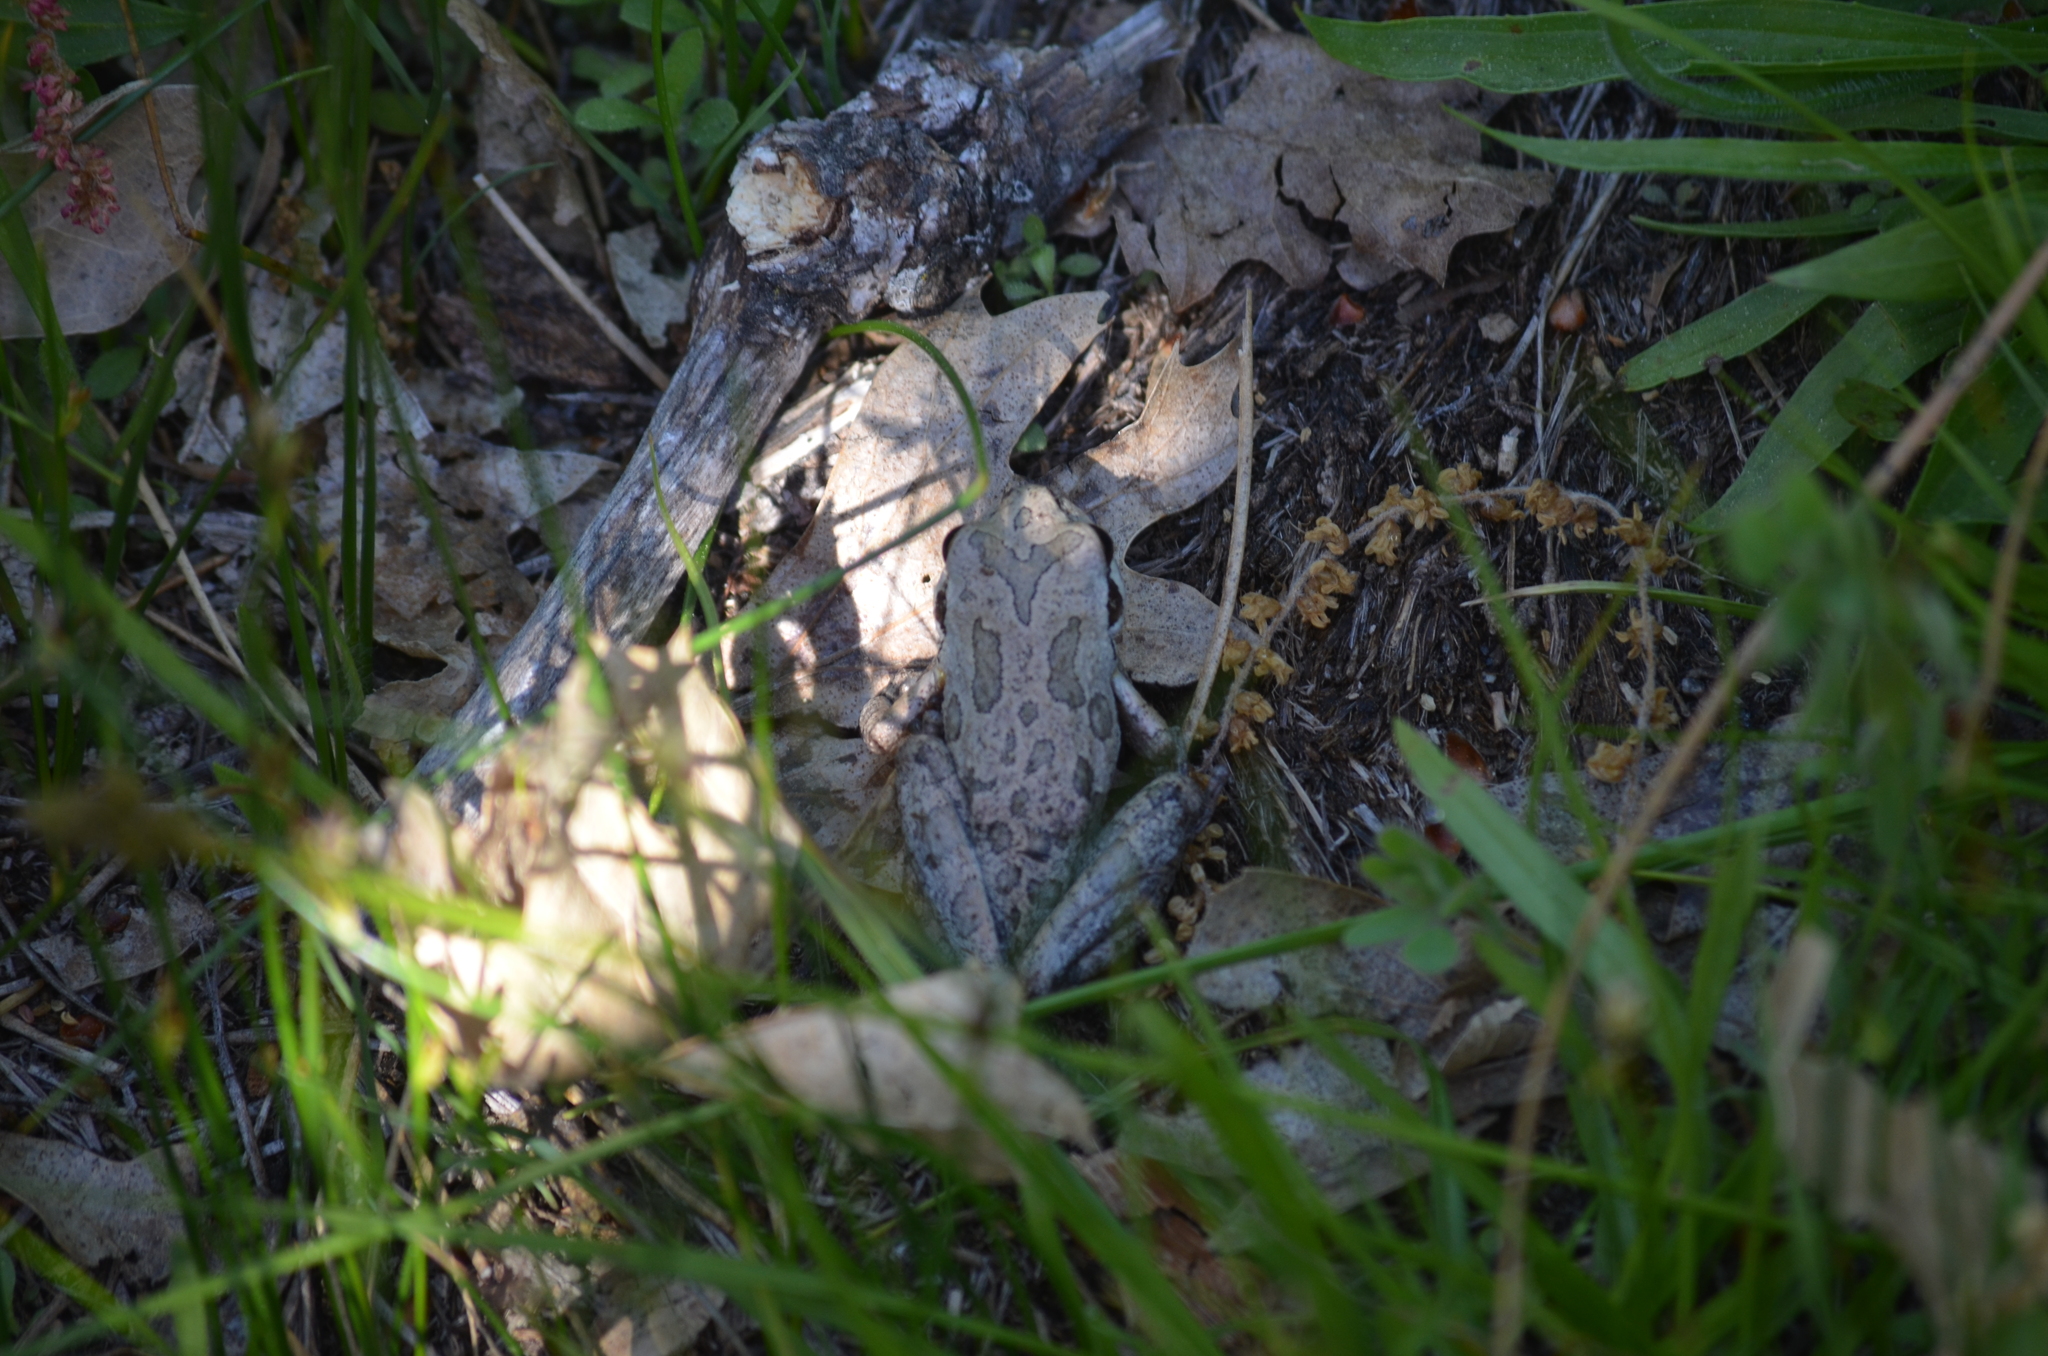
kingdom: Animalia
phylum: Chordata
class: Amphibia
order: Anura
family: Hylidae
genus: Pseudacris
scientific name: Pseudacris regilla
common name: Pacific chorus frog
